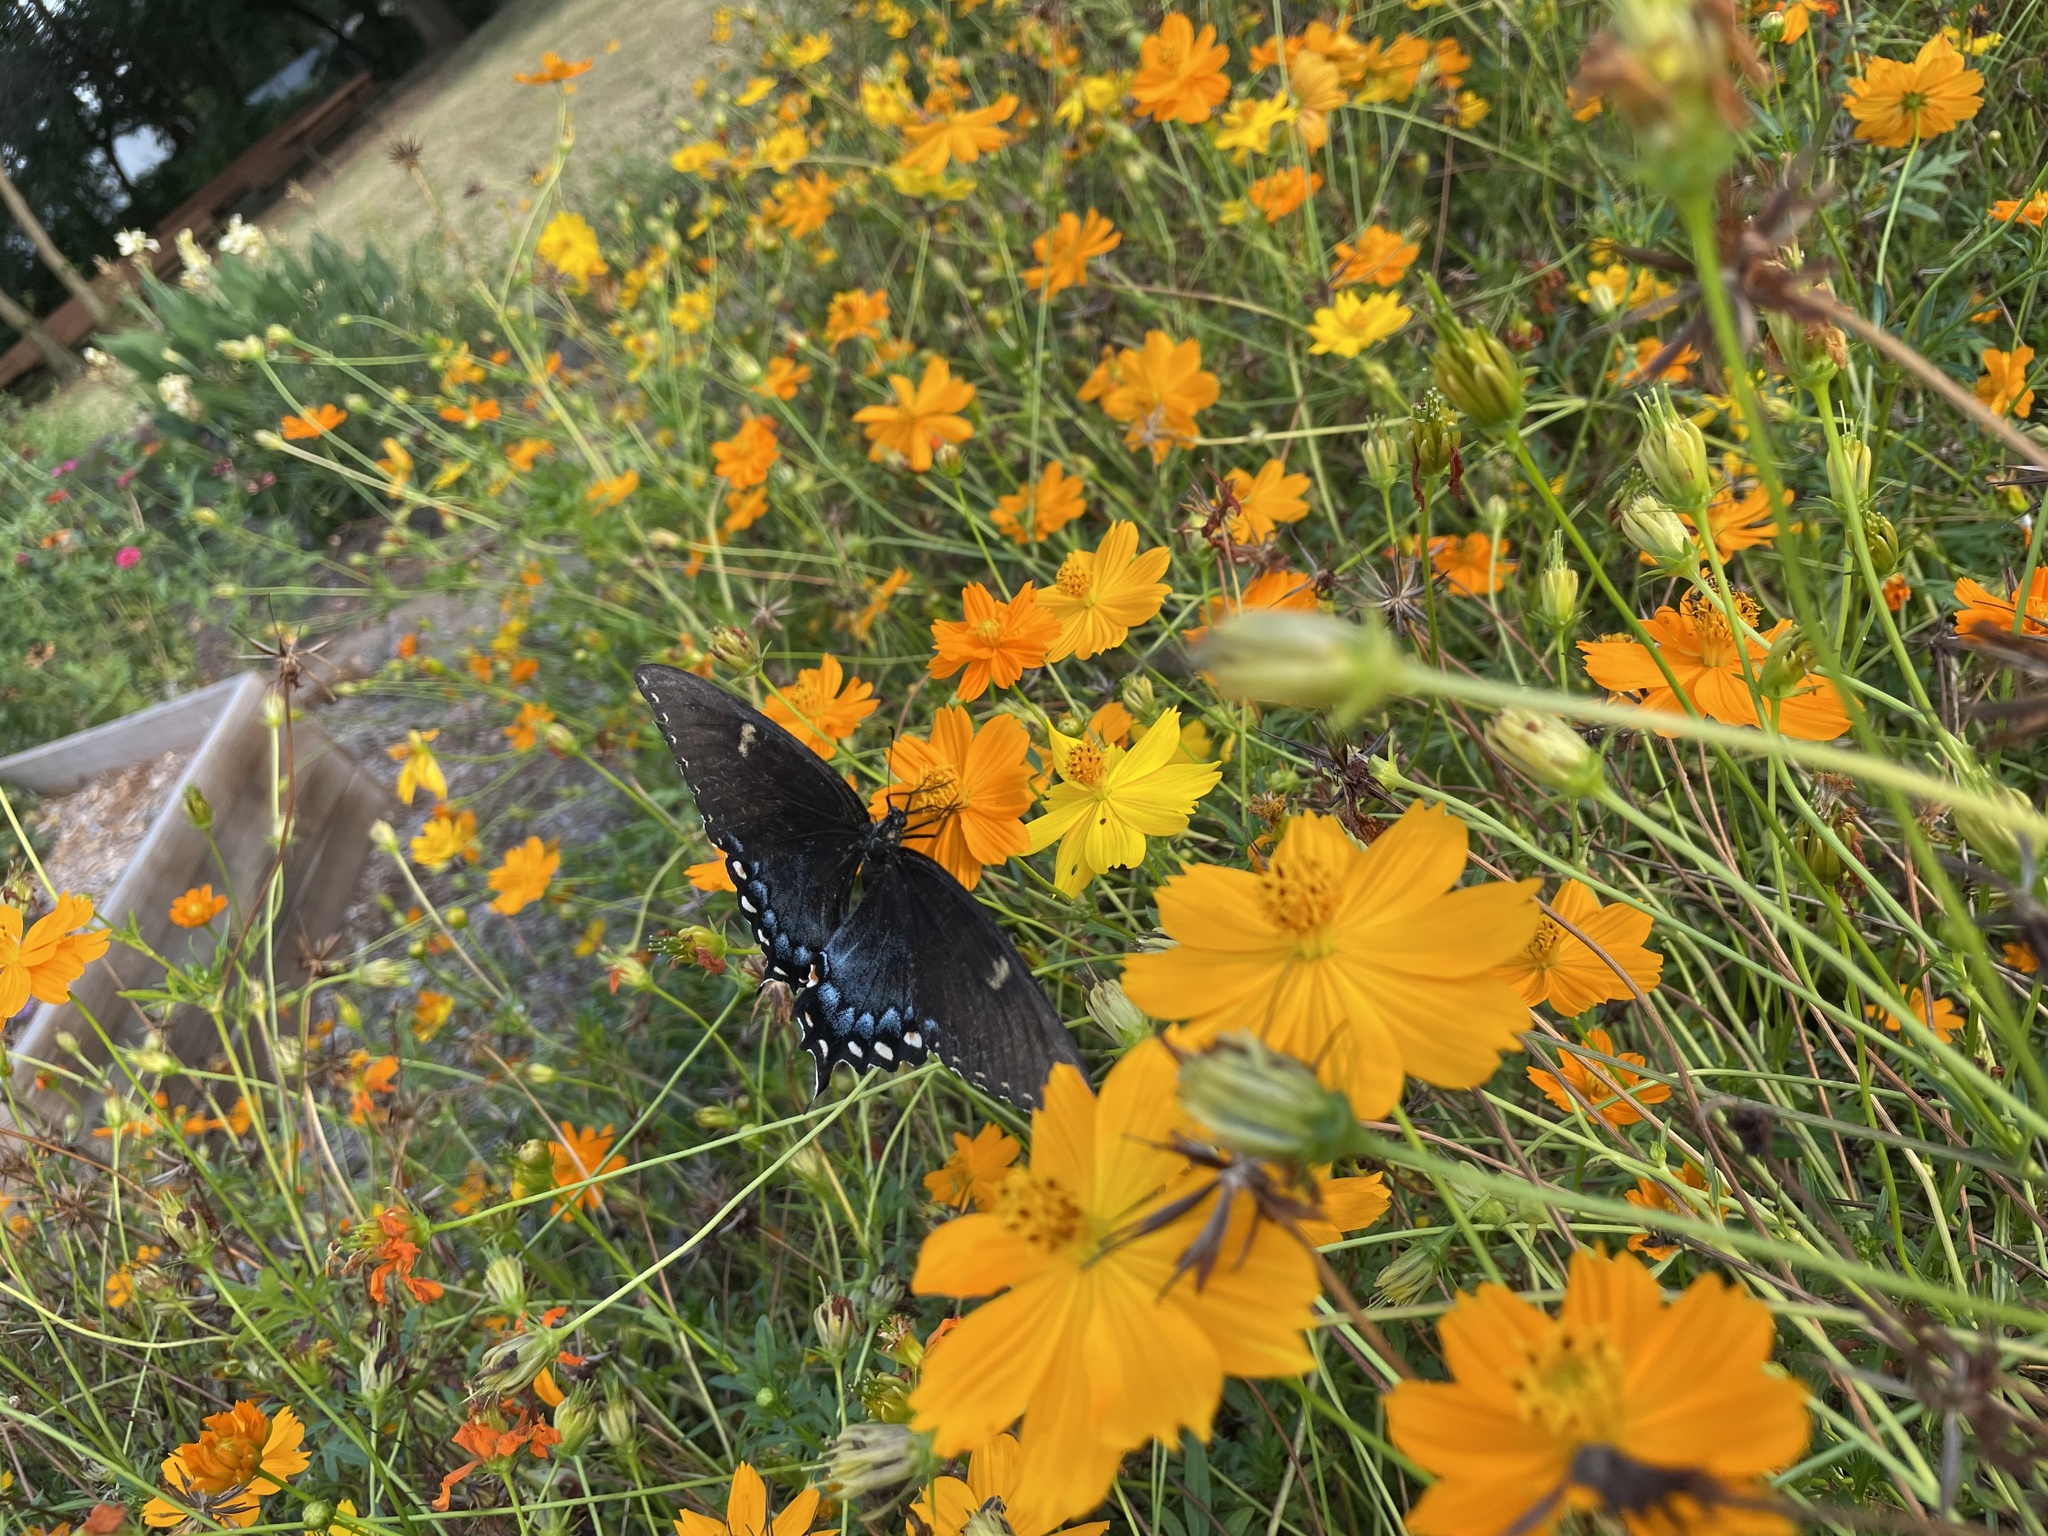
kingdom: Animalia
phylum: Arthropoda
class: Insecta
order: Lepidoptera
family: Papilionidae
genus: Papilio
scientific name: Papilio glaucus
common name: Tiger swallowtail
